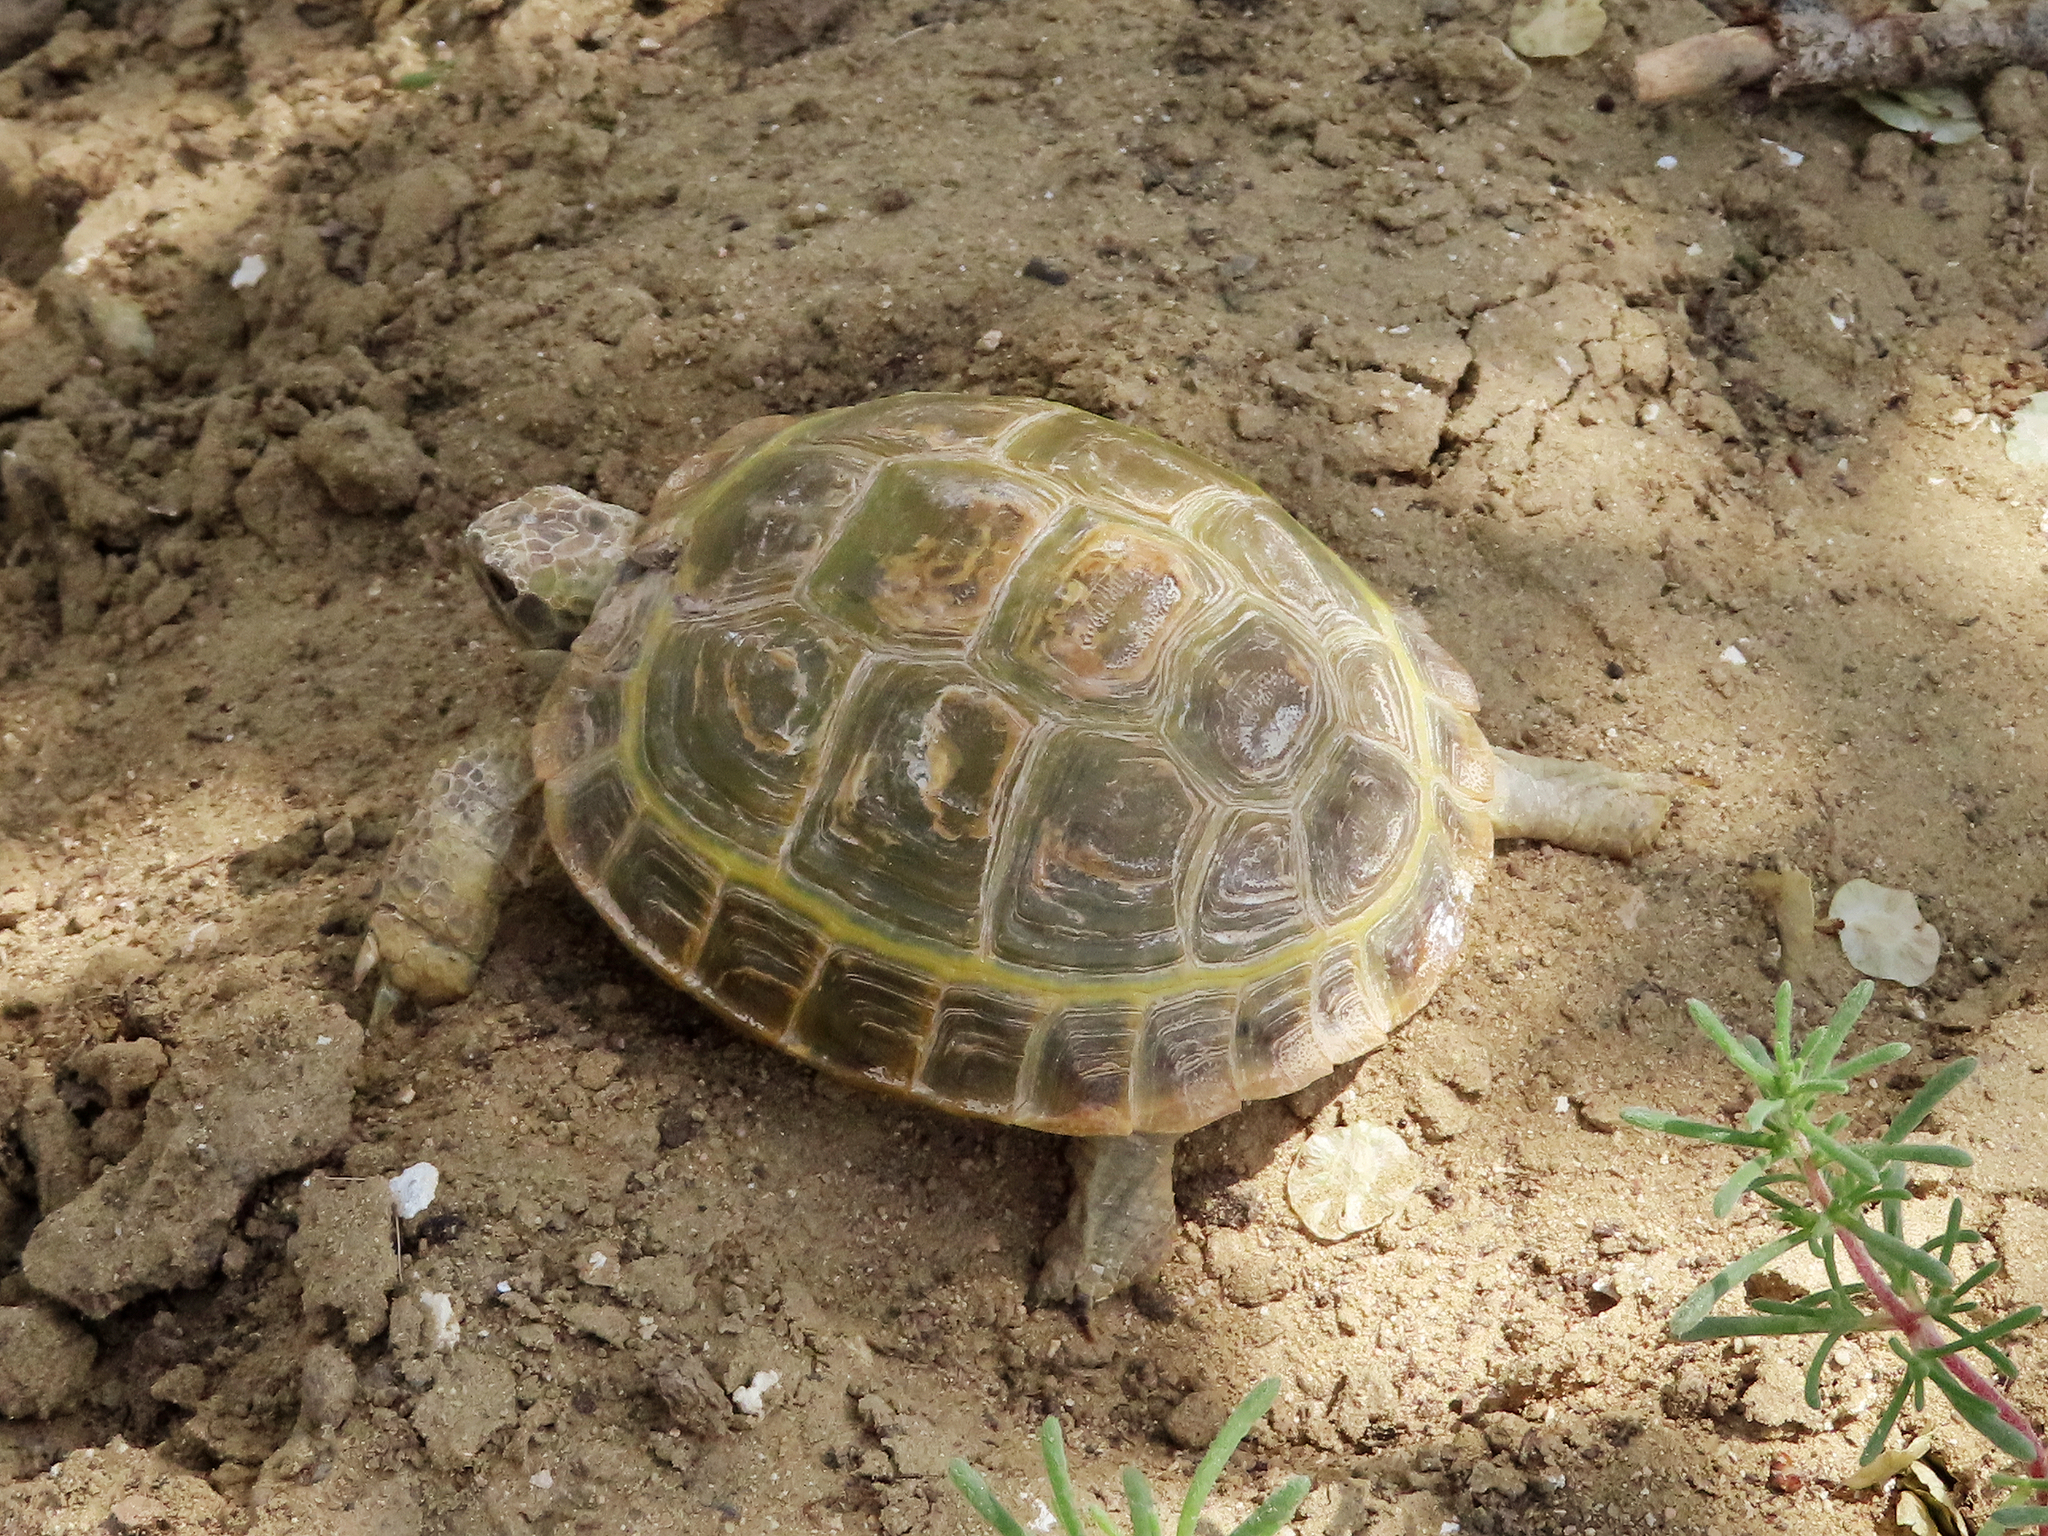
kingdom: Animalia
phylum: Chordata
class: Testudines
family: Testudinidae
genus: Testudo
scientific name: Testudo horsfieldii
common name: Central asia tortoise
